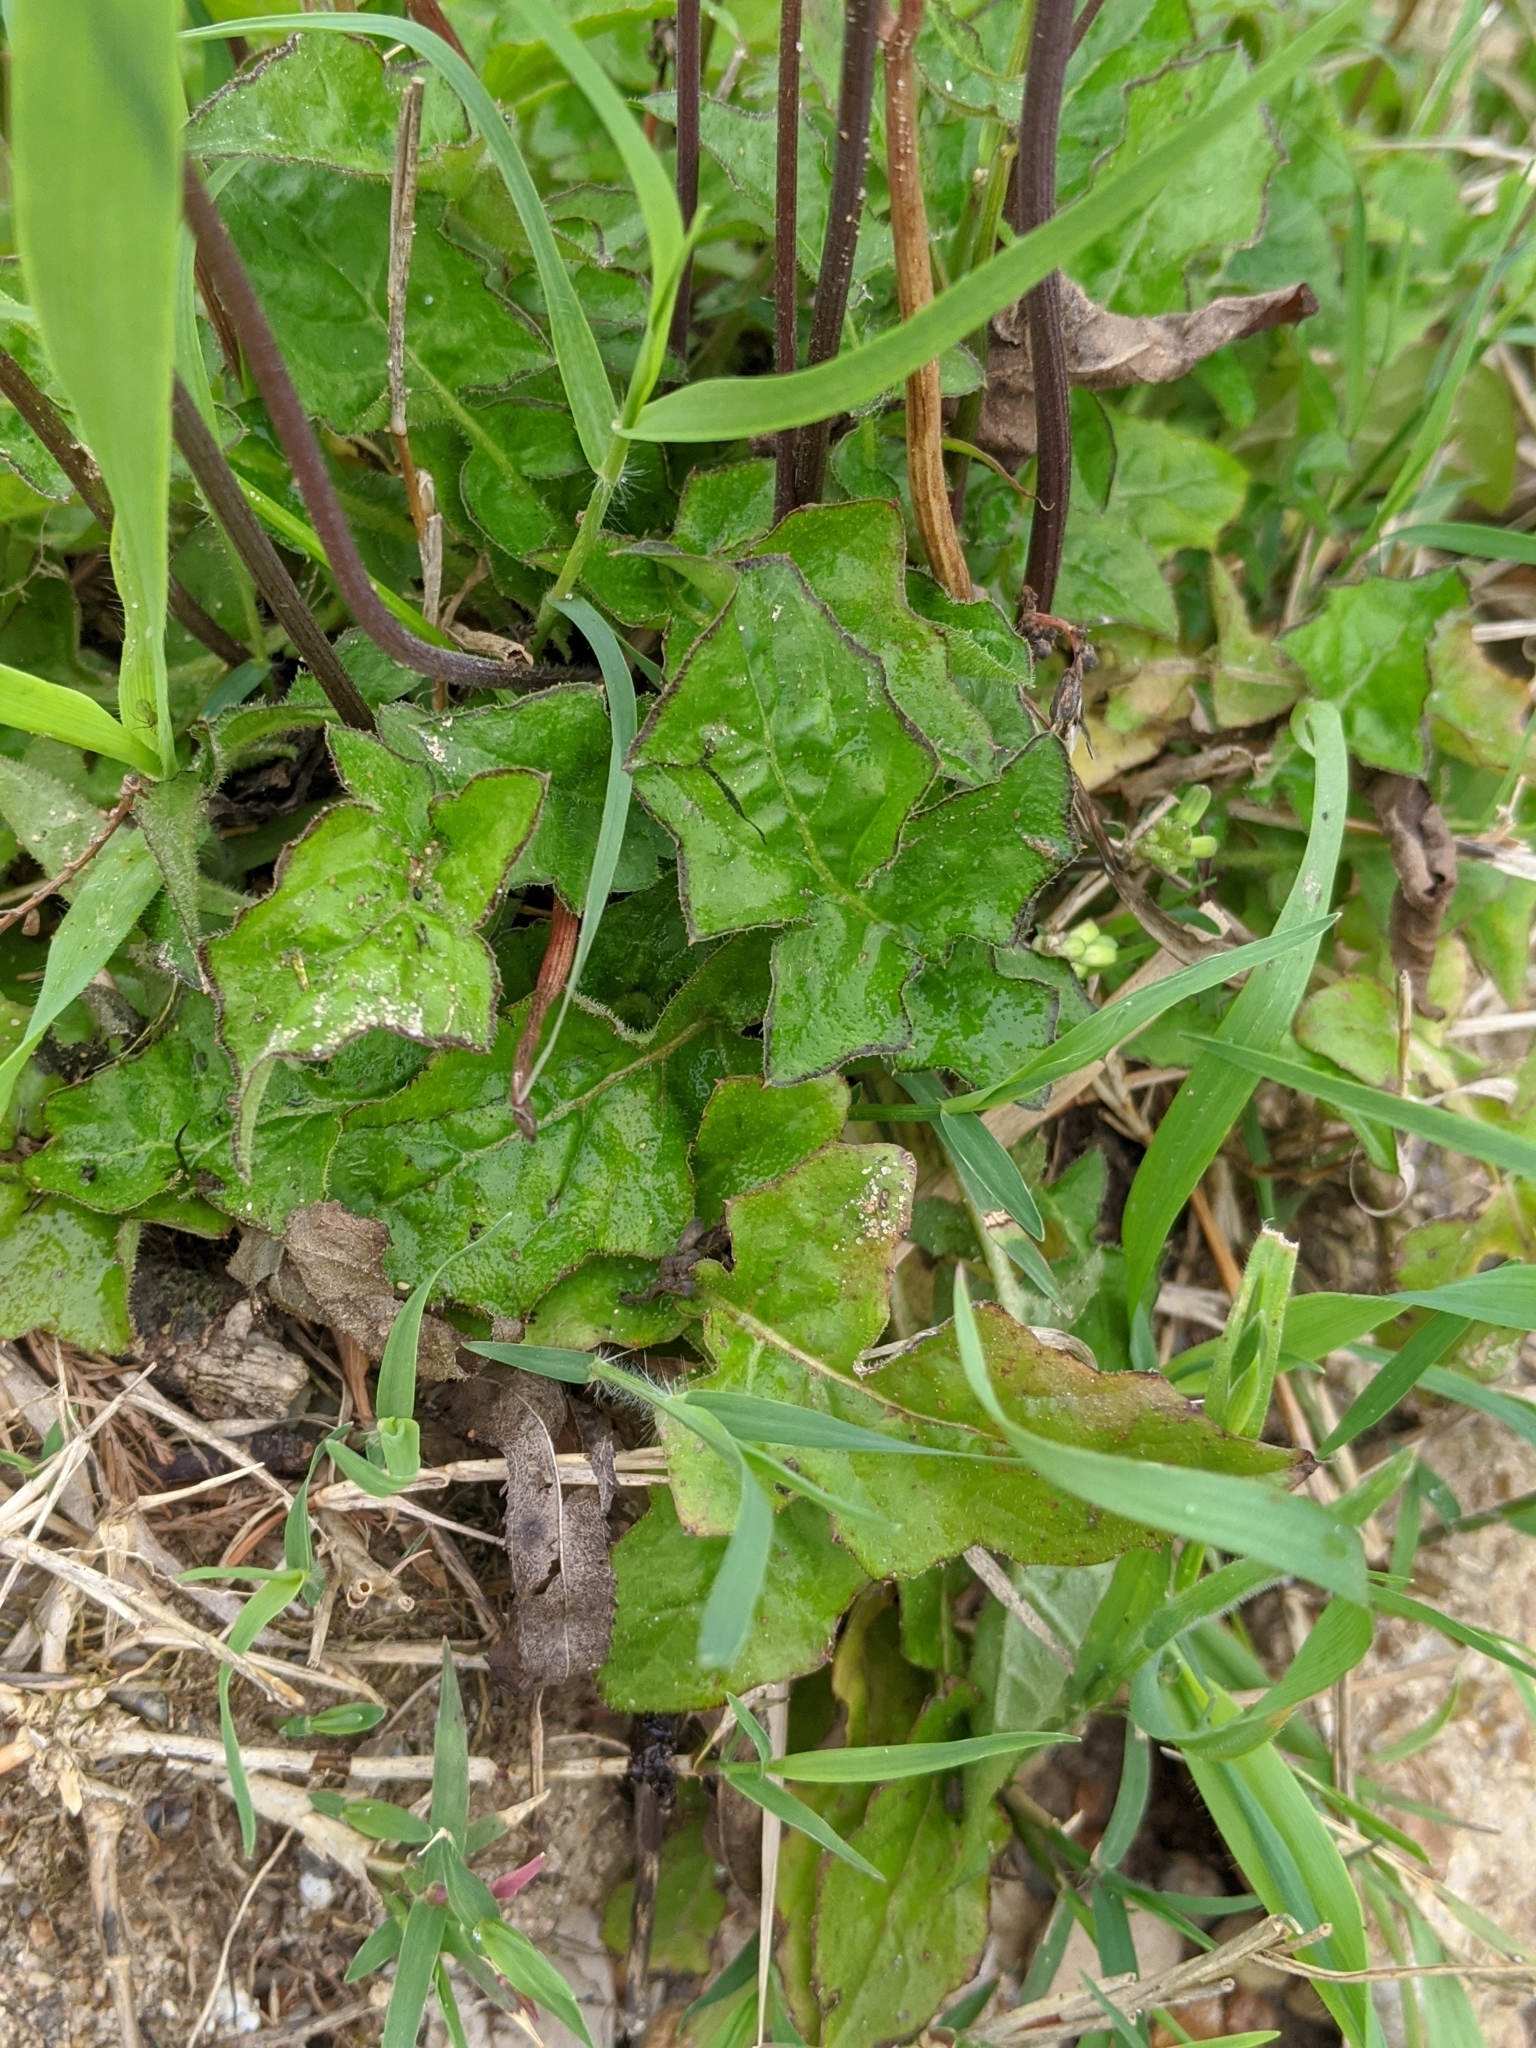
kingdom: Plantae
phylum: Tracheophyta
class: Magnoliopsida
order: Asterales
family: Asteraceae
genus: Youngia
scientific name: Youngia japonica
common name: Oriental false hawksbeard
